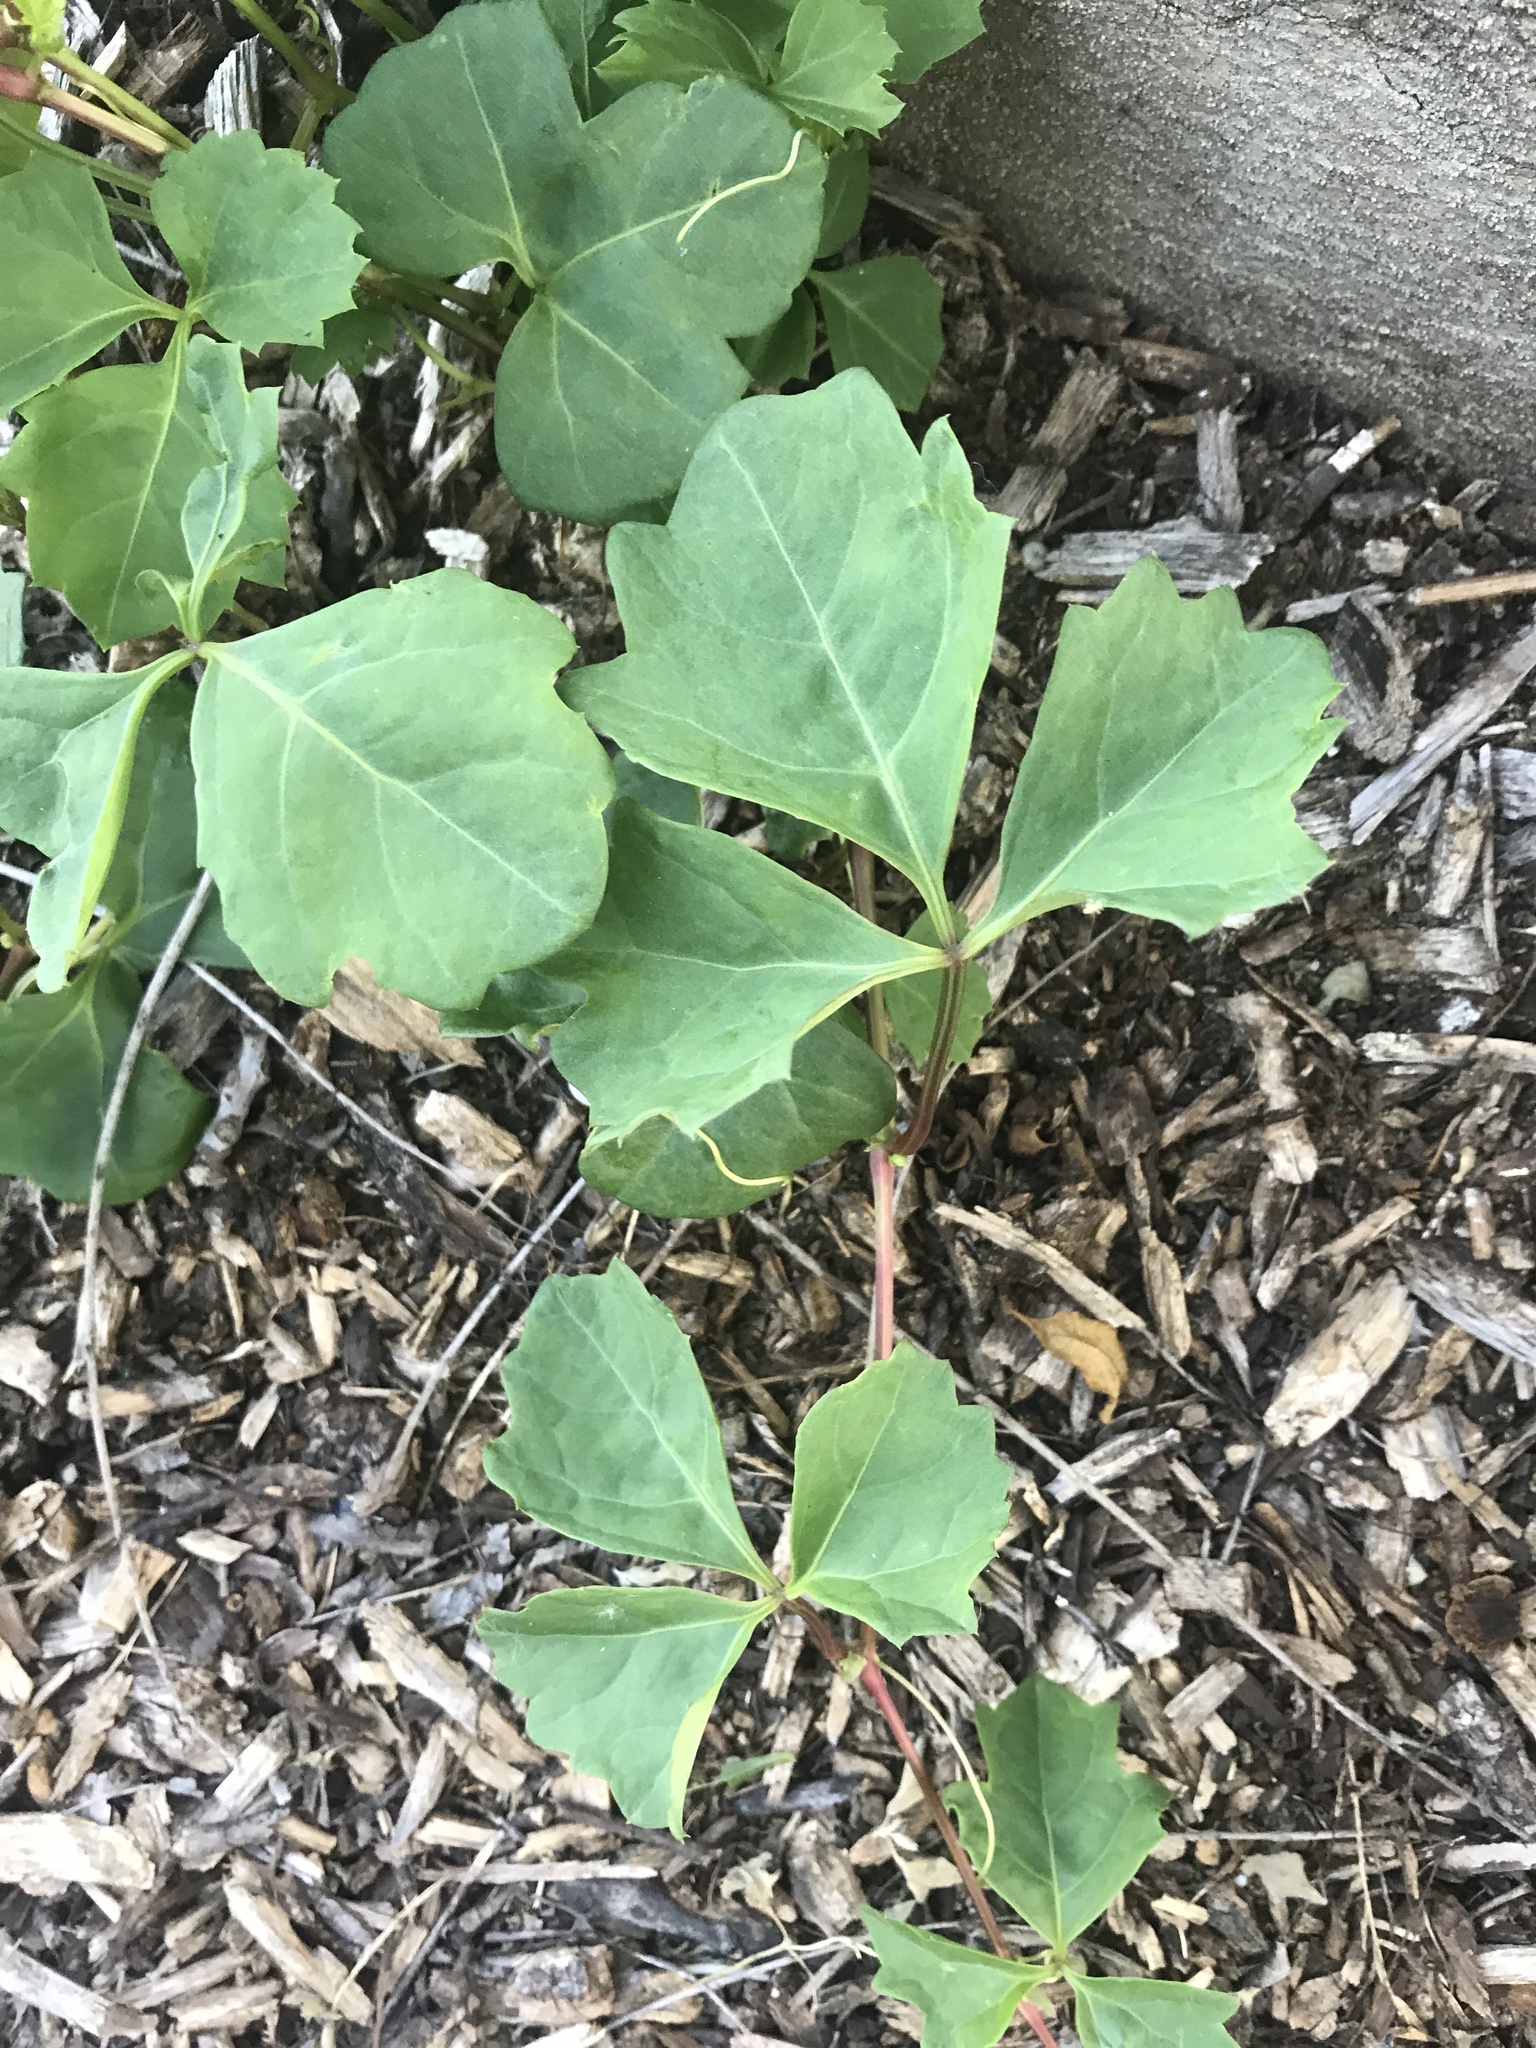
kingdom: Plantae
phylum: Tracheophyta
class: Magnoliopsida
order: Vitales
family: Vitaceae
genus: Cissus
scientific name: Cissus trifoliata
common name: Vine-sorrel
